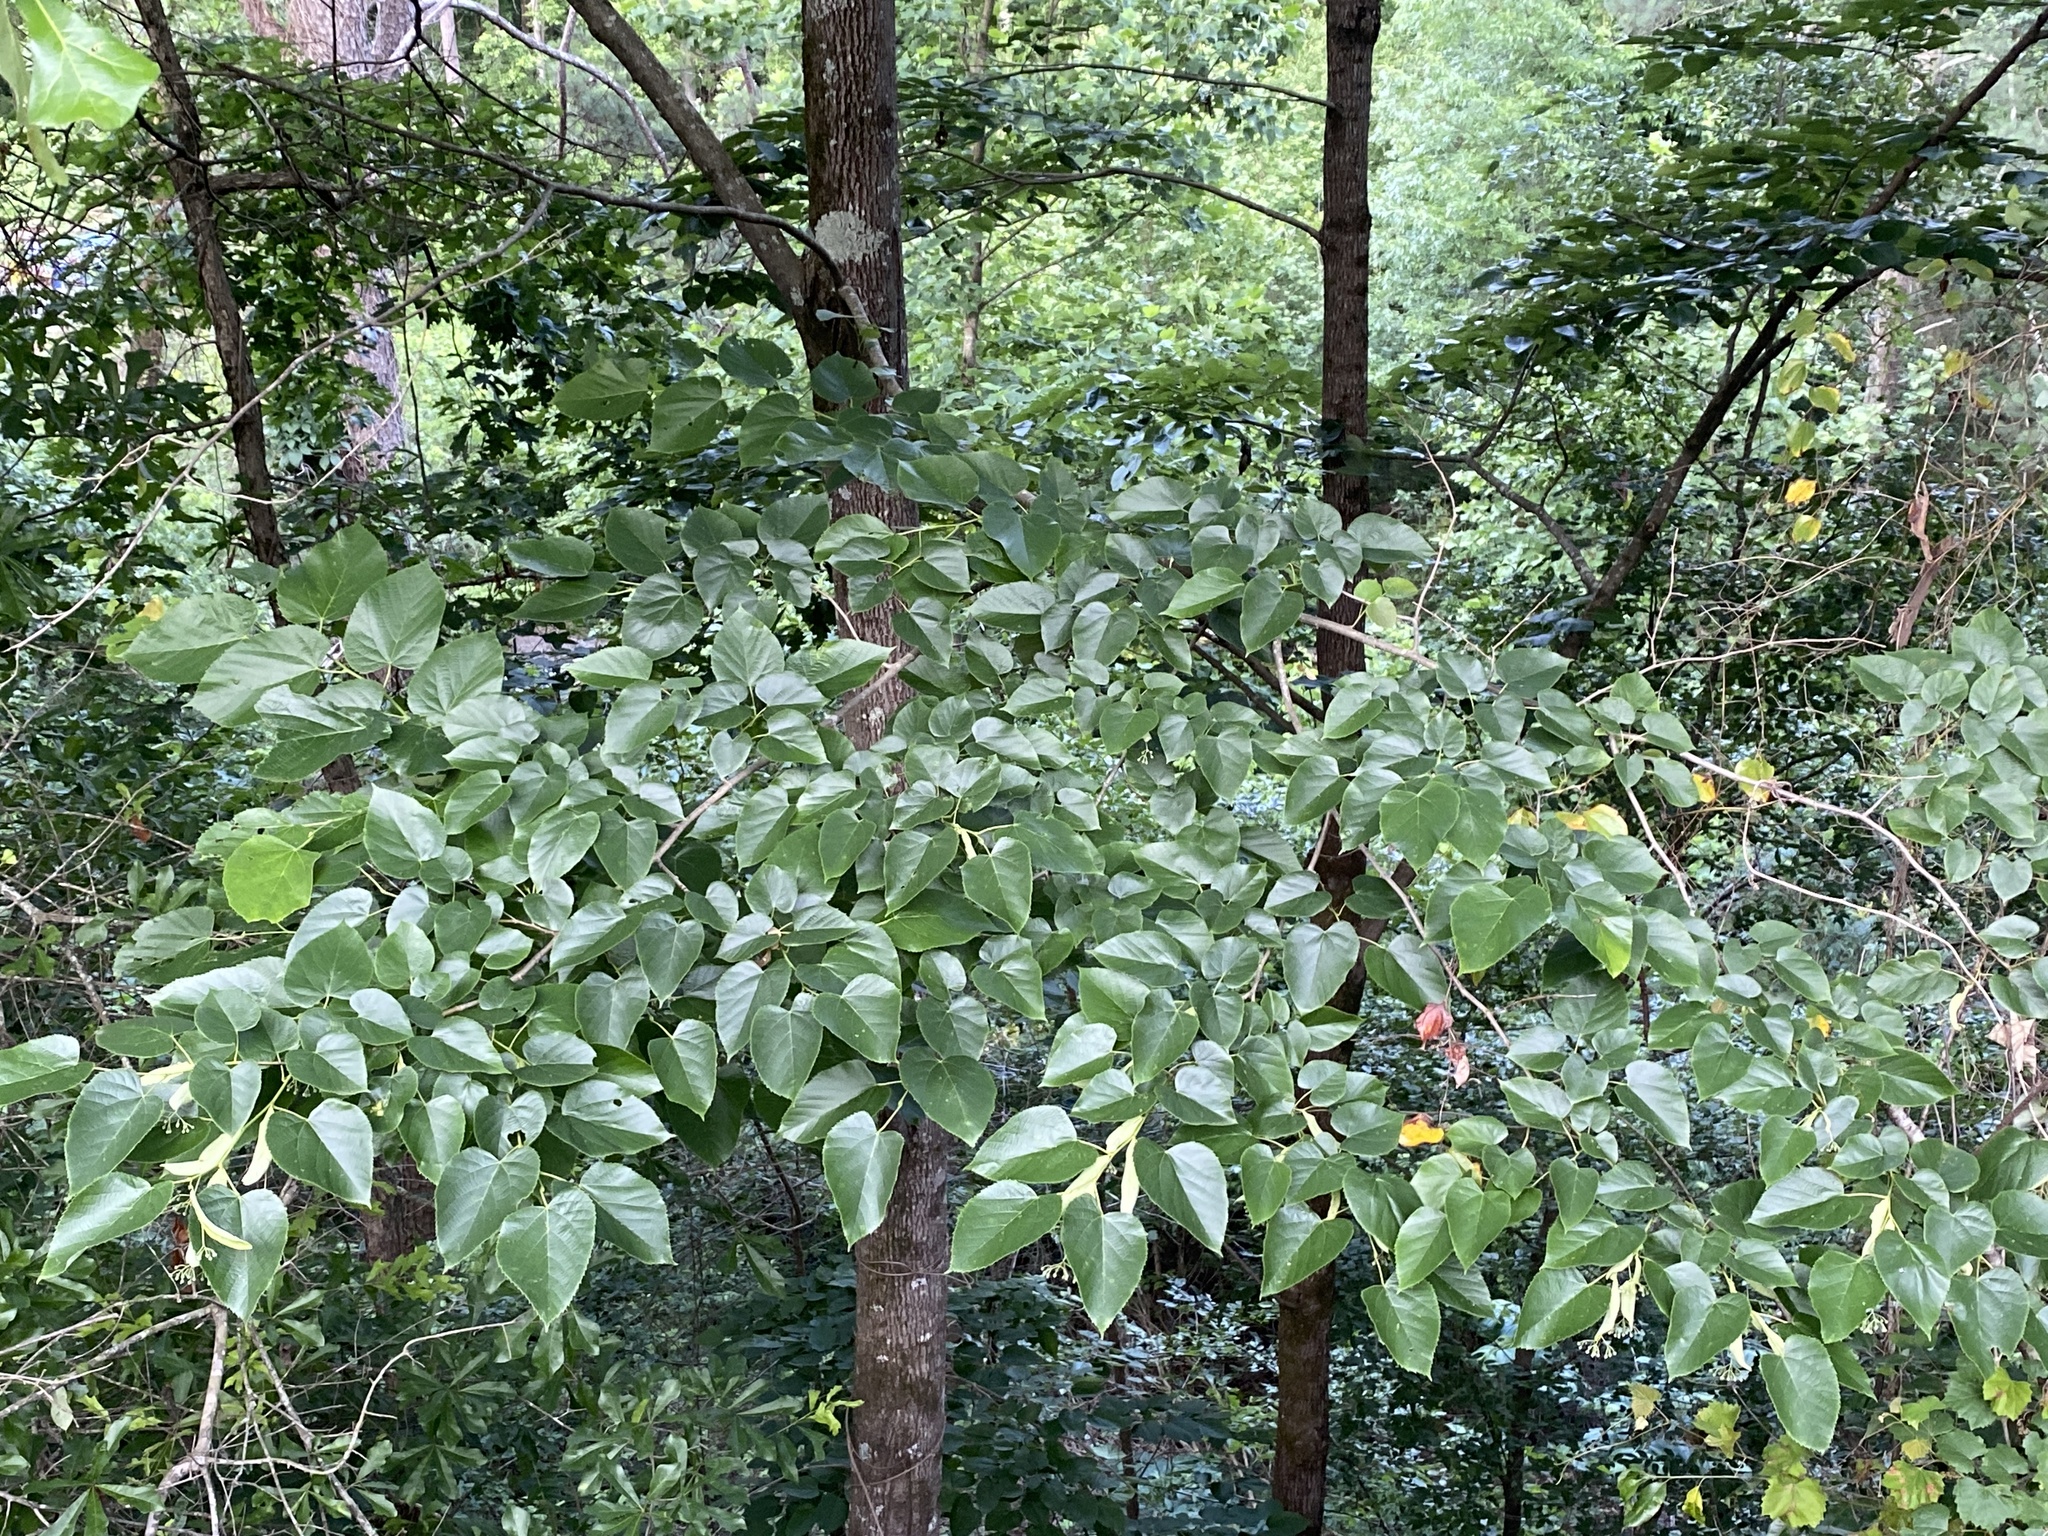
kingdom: Plantae
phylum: Tracheophyta
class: Magnoliopsida
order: Malvales
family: Malvaceae
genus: Tilia
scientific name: Tilia americana
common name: Basswood
